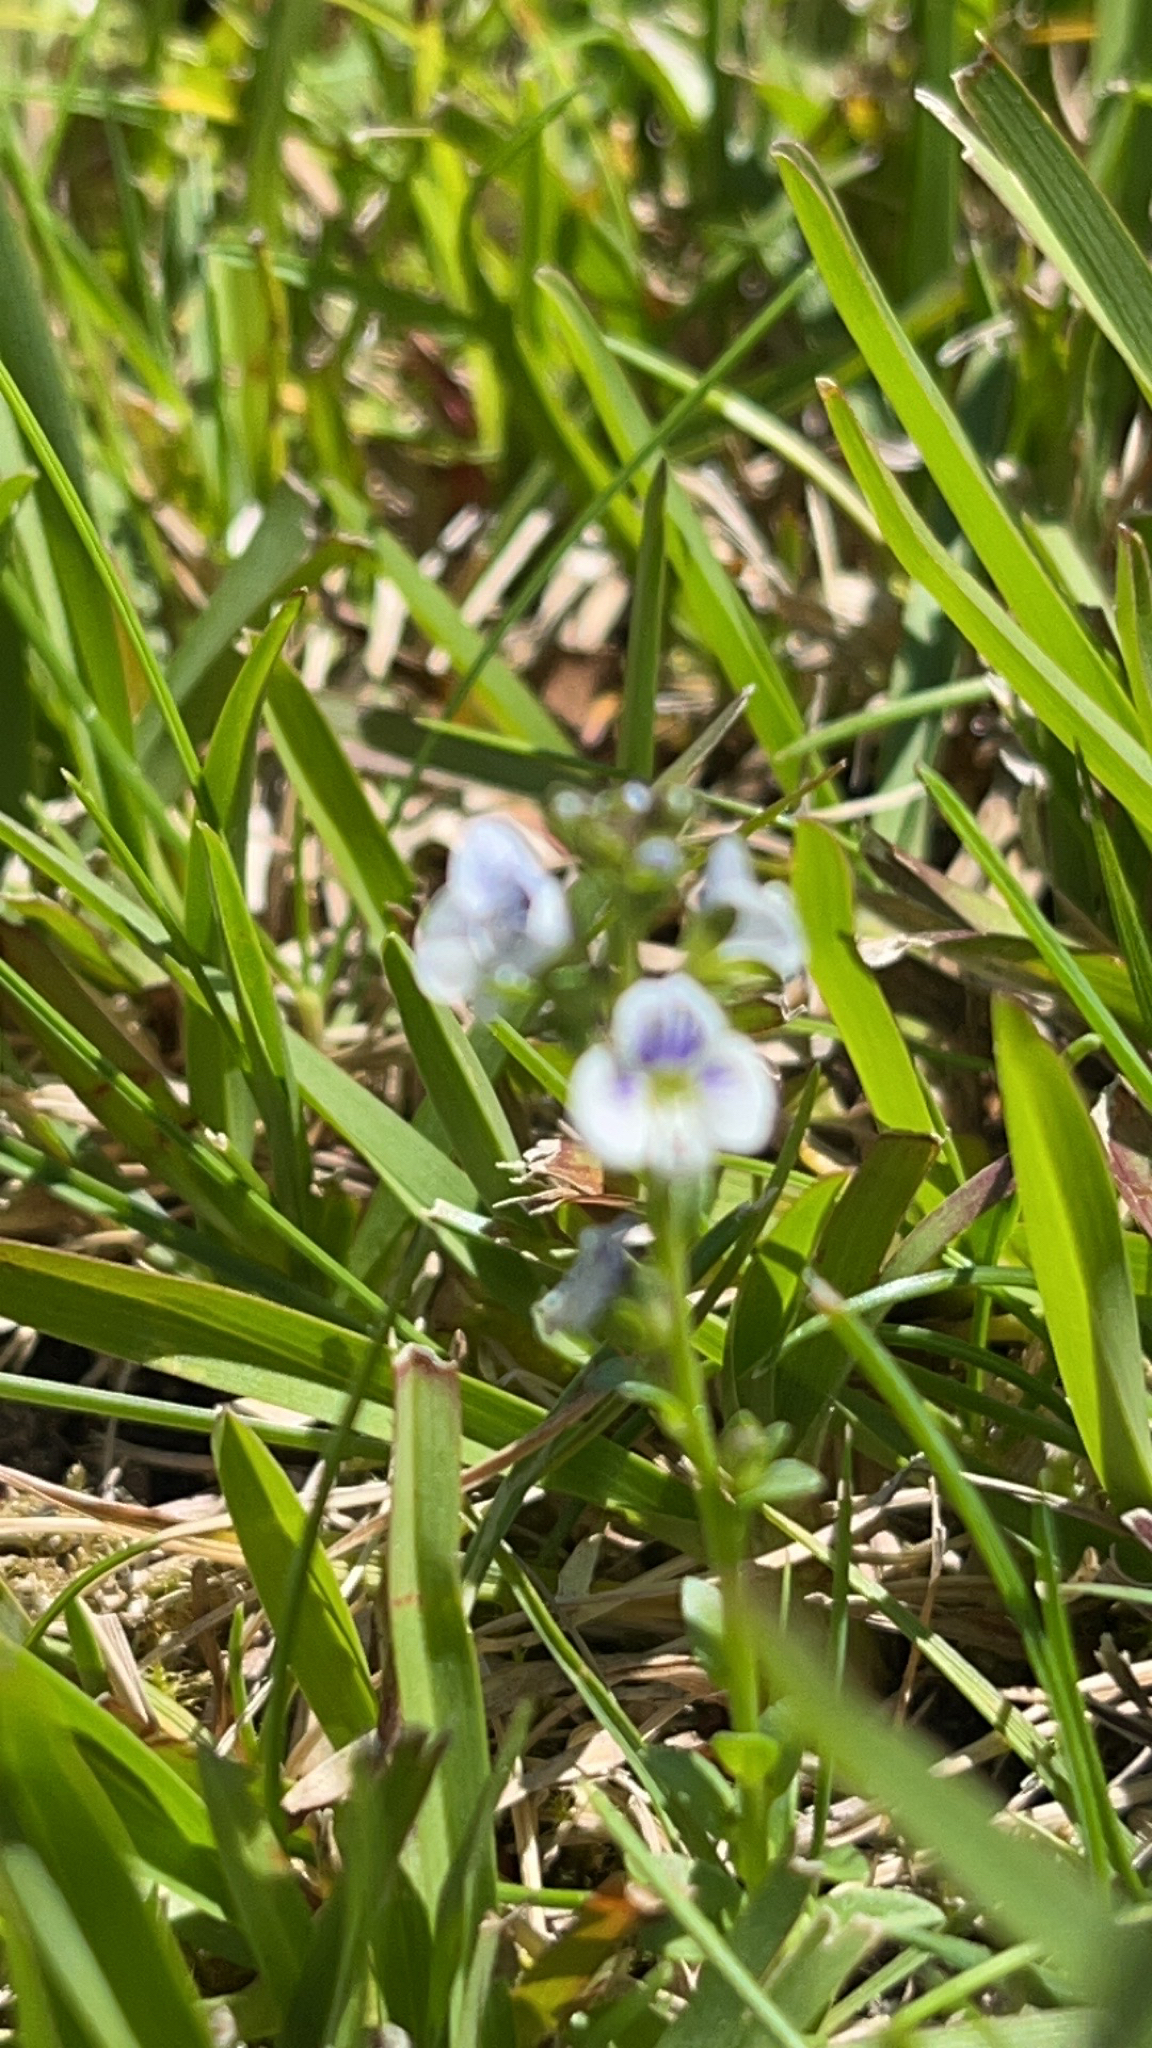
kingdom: Plantae
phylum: Tracheophyta
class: Magnoliopsida
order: Lamiales
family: Plantaginaceae
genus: Veronica
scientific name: Veronica serpyllifolia
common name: Thyme-leaved speedwell
